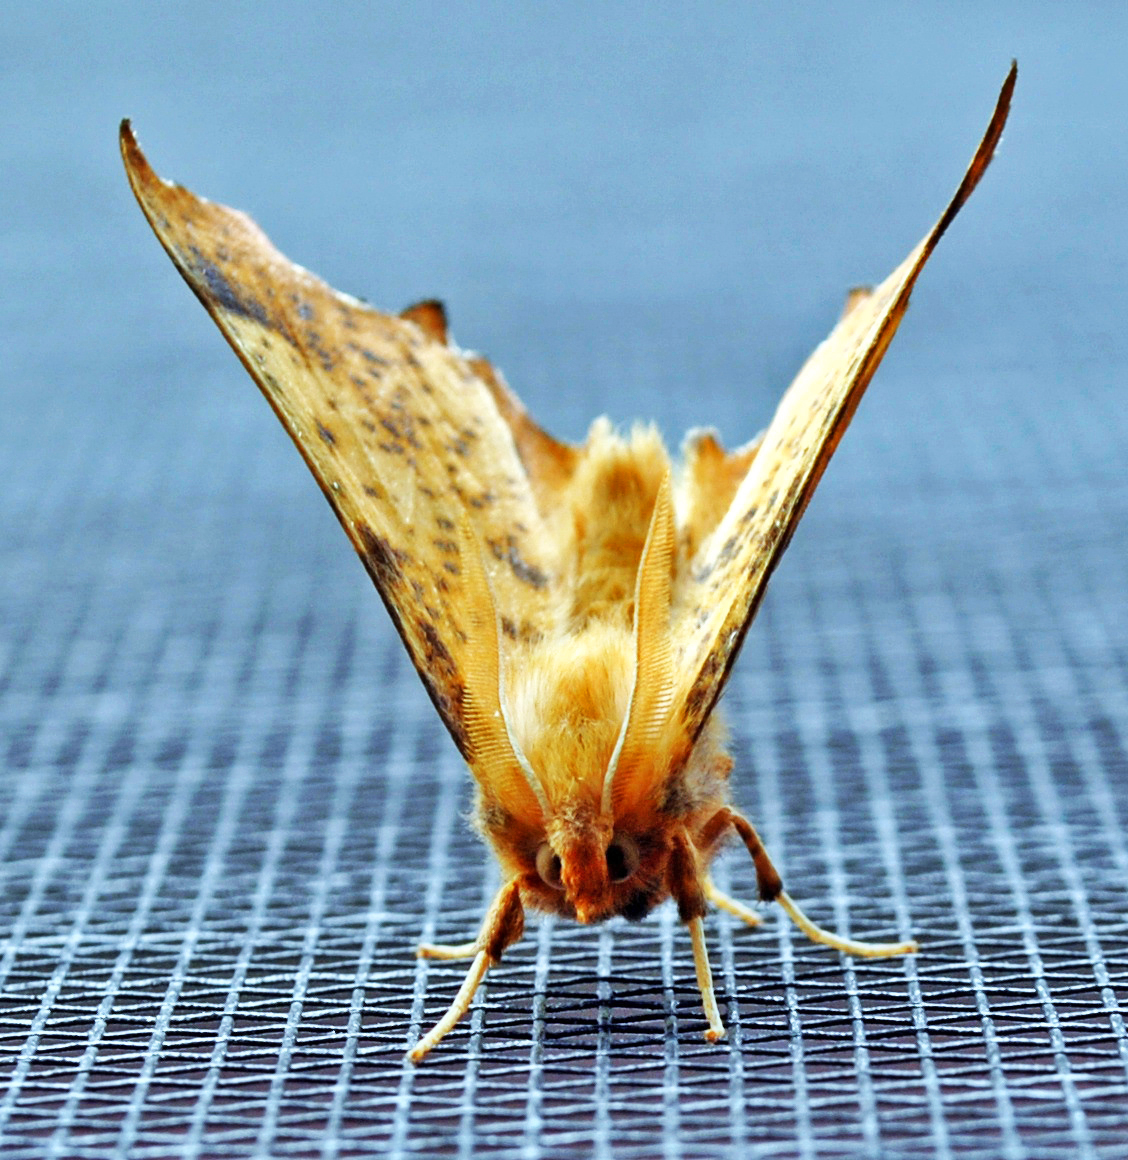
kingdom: Animalia
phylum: Arthropoda
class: Insecta
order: Lepidoptera
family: Geometridae
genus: Ennomos
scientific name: Ennomos magnaria
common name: Maple spanworm
